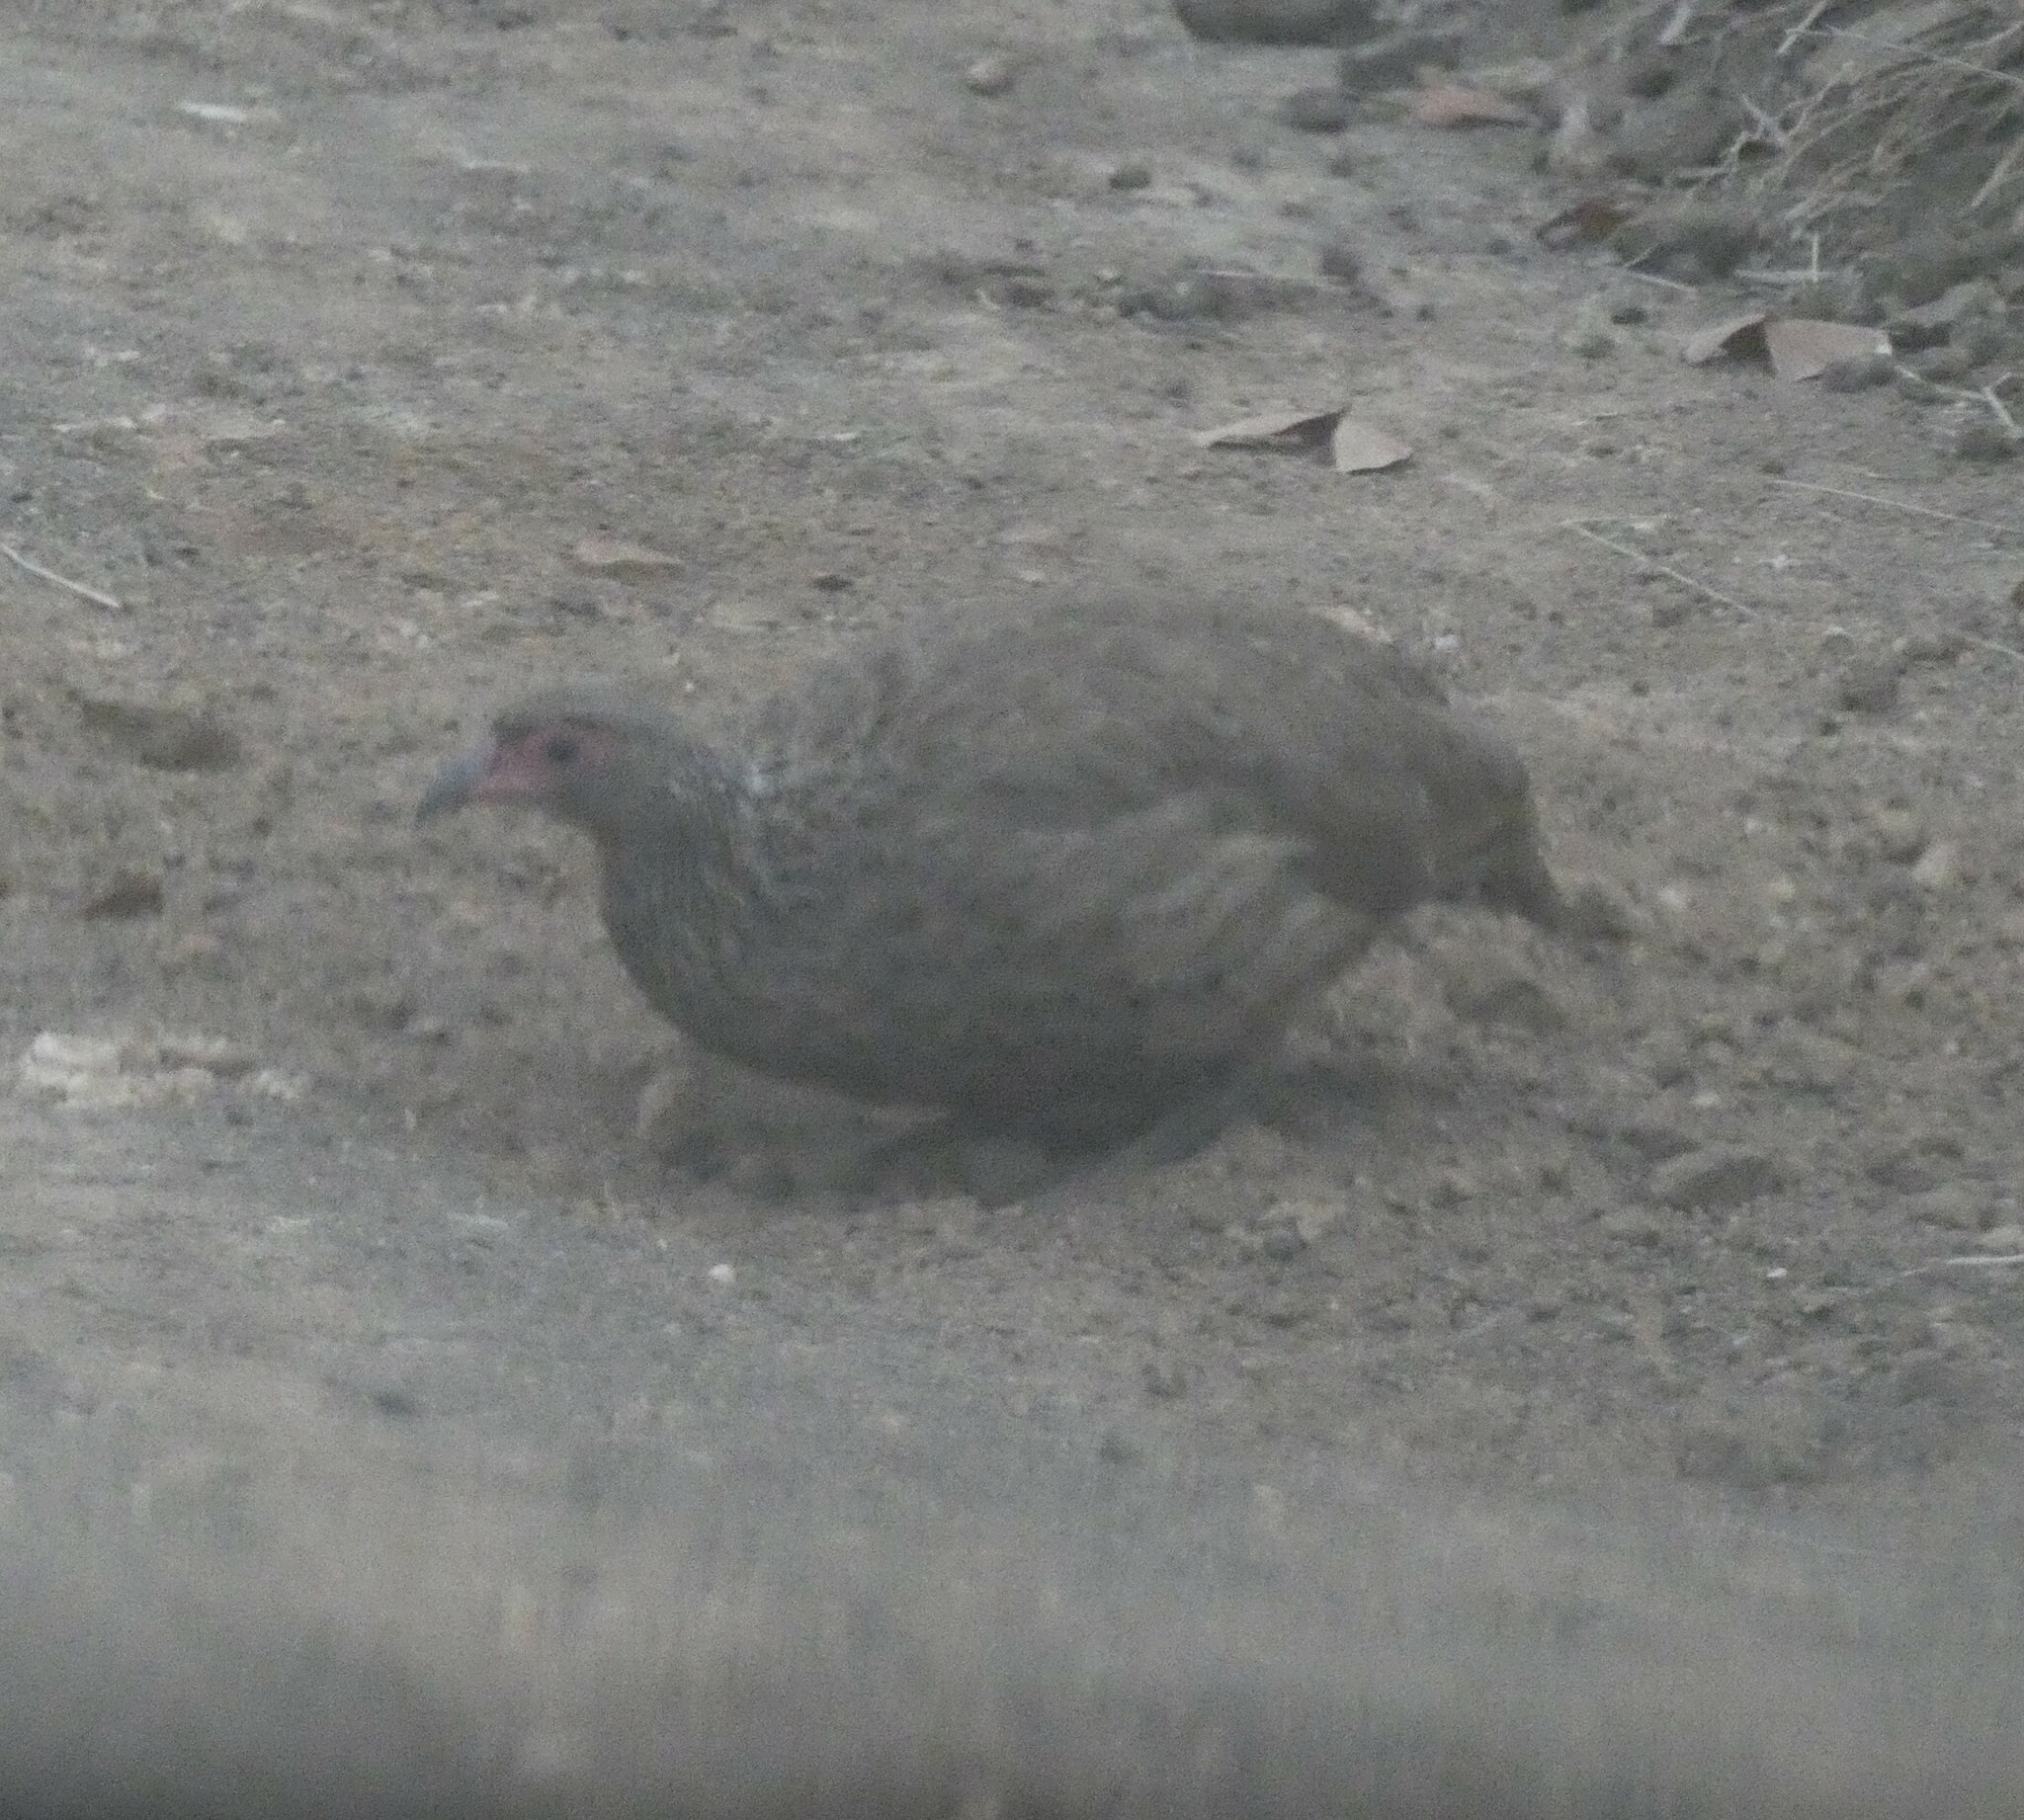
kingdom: Animalia
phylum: Chordata
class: Aves
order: Galliformes
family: Phasianidae
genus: Pternistis
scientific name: Pternistis swainsonii
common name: Swainson's spurfowl
